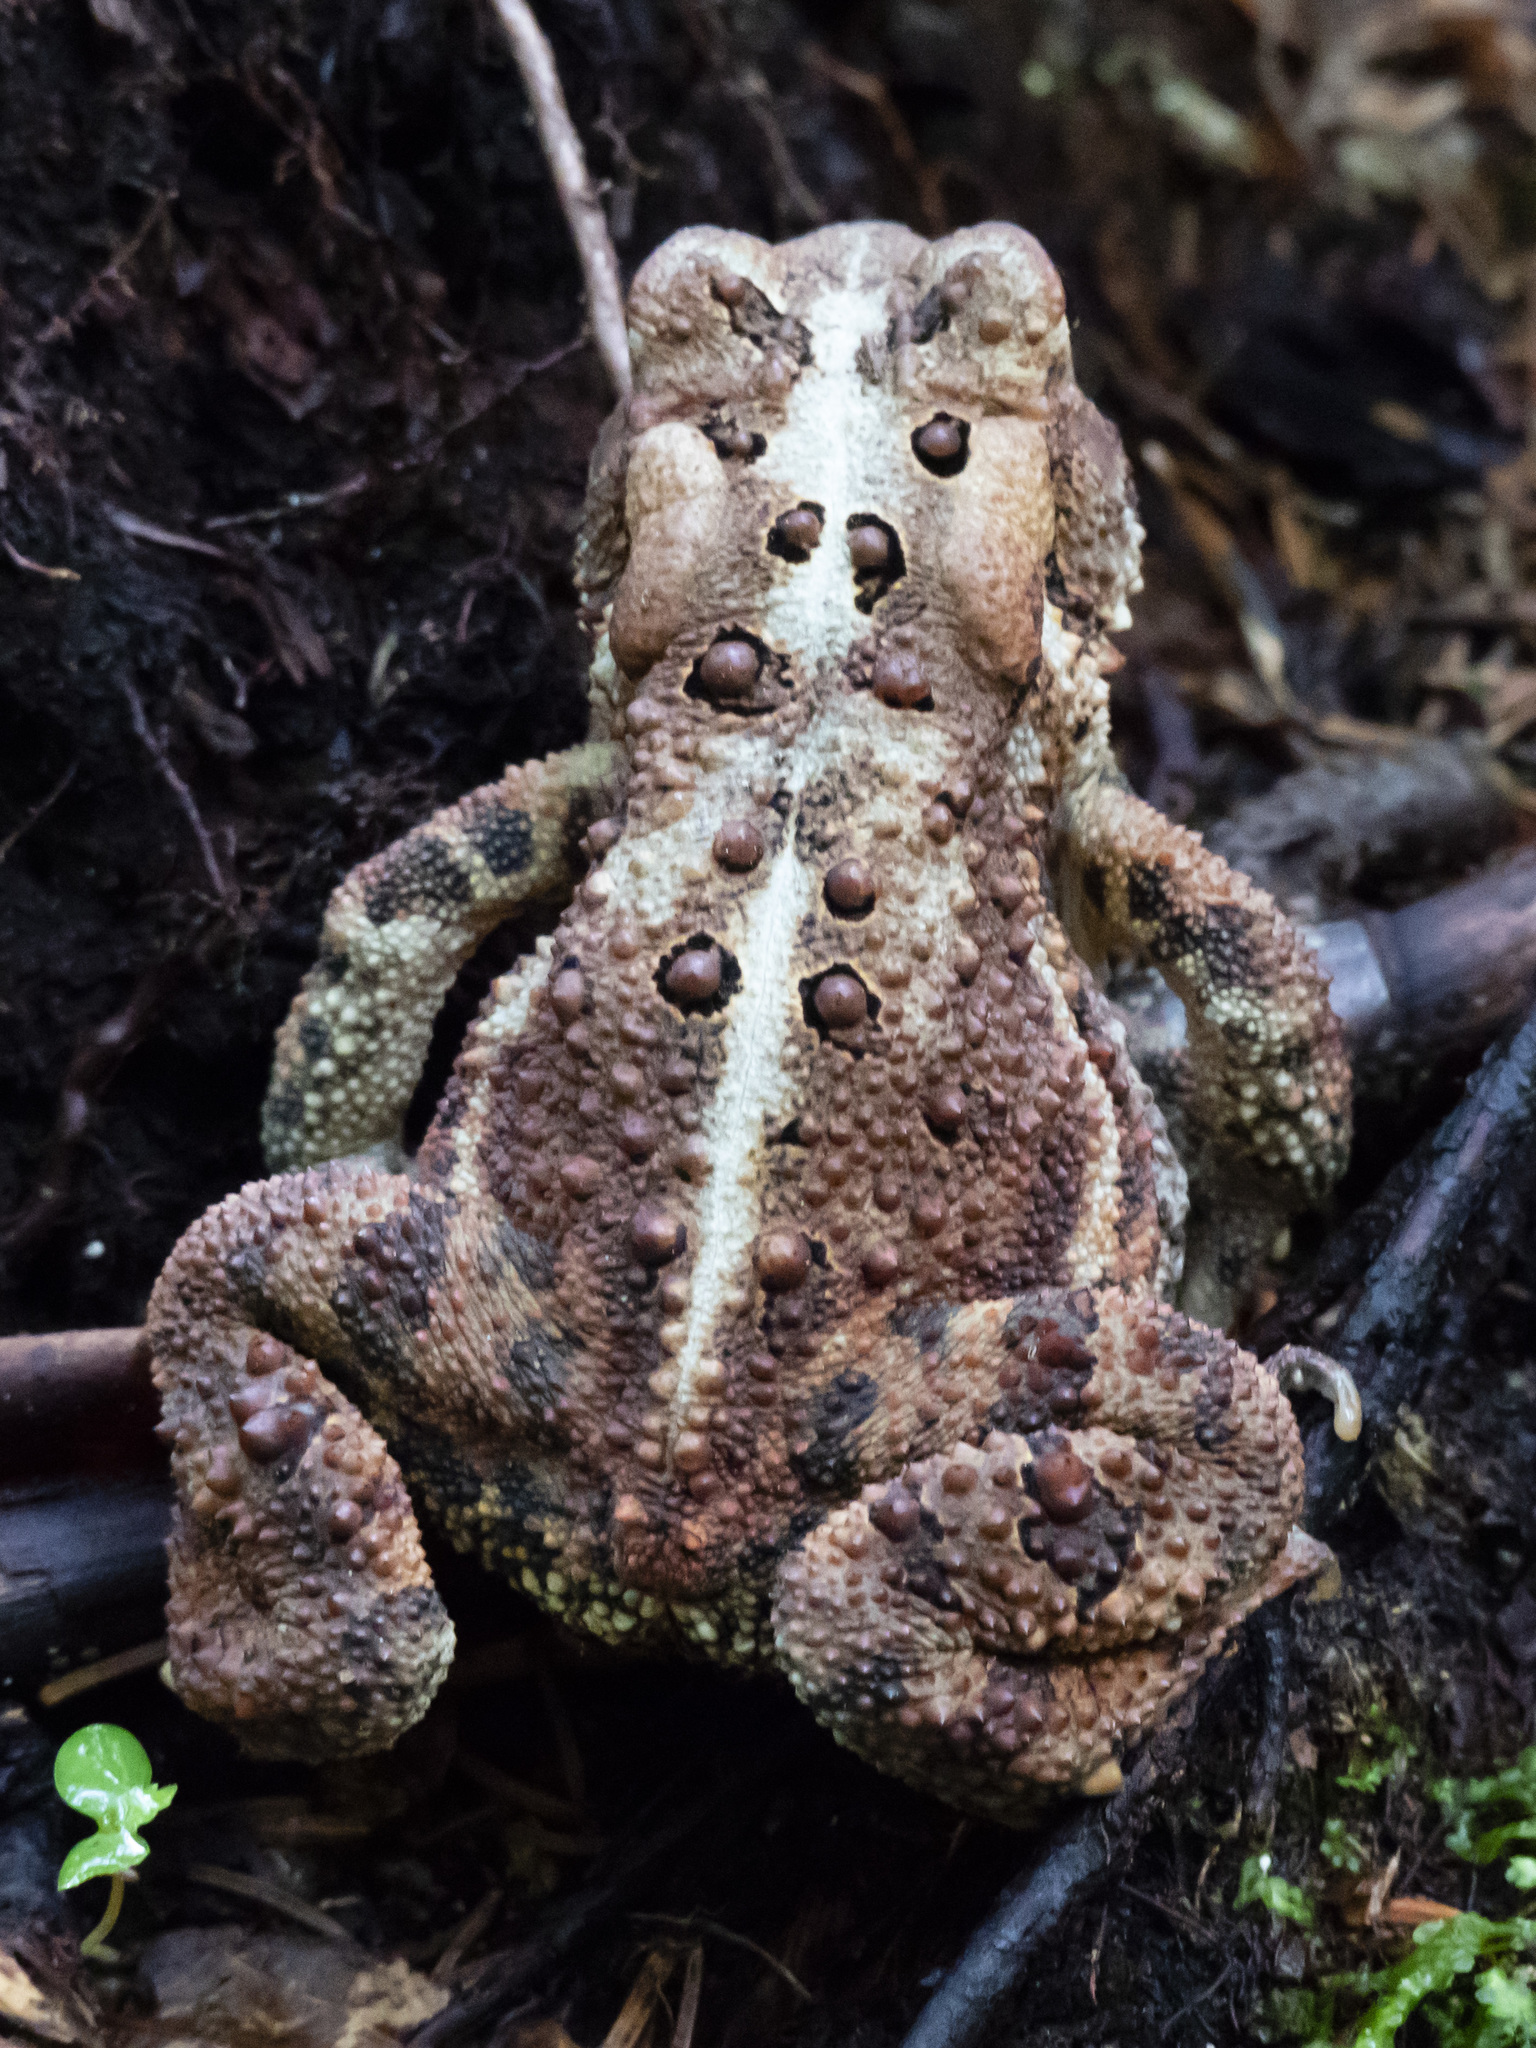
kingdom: Animalia
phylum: Chordata
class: Amphibia
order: Anura
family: Bufonidae
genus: Anaxyrus
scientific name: Anaxyrus americanus
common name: American toad
